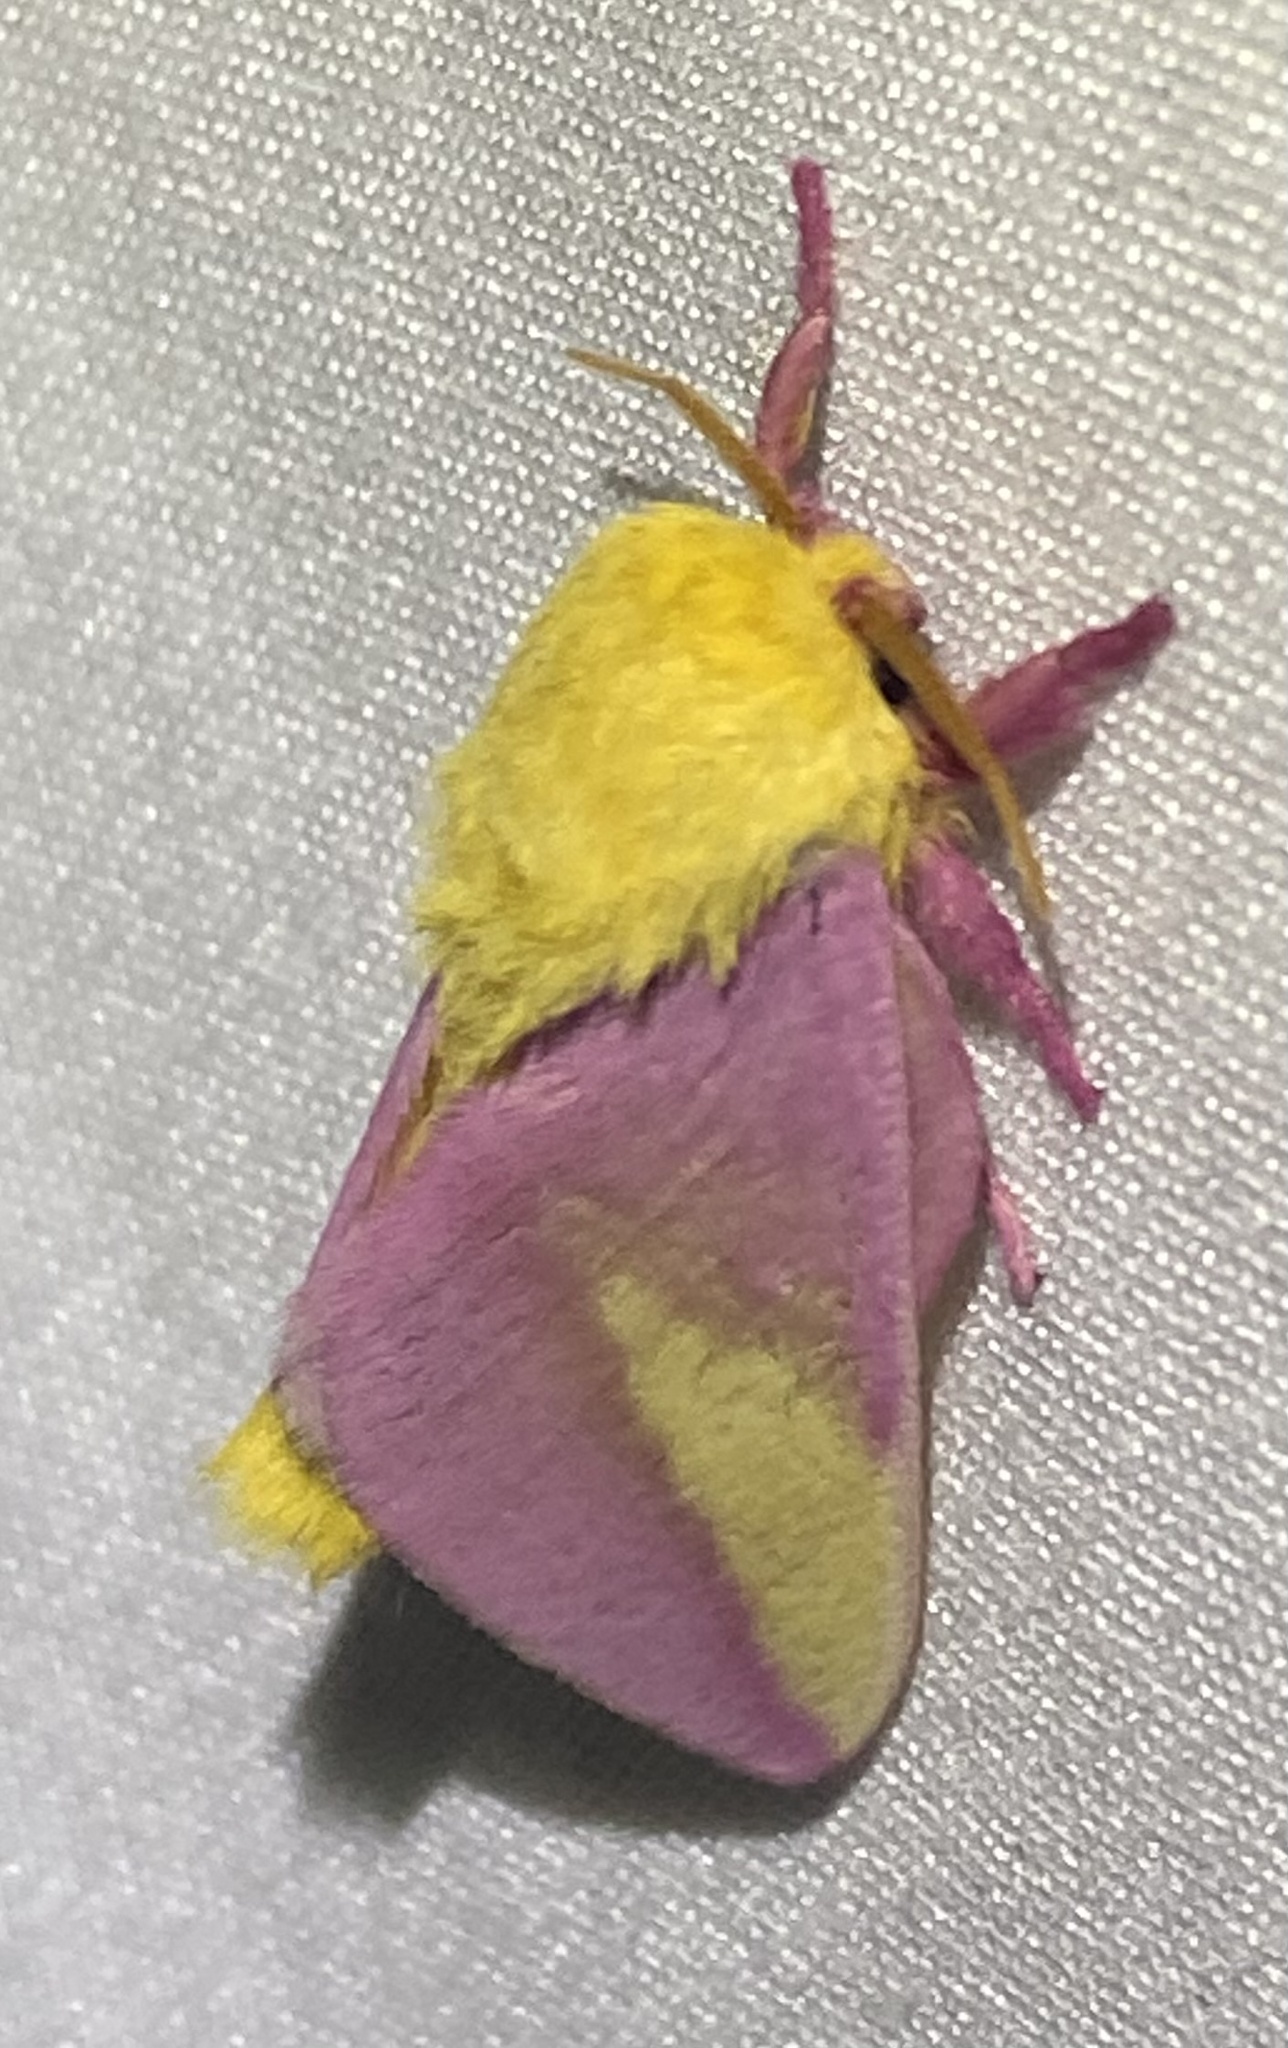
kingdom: Animalia
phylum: Arthropoda
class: Insecta
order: Lepidoptera
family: Saturniidae
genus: Dryocampa
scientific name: Dryocampa rubicunda
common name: Rosy maple moth
